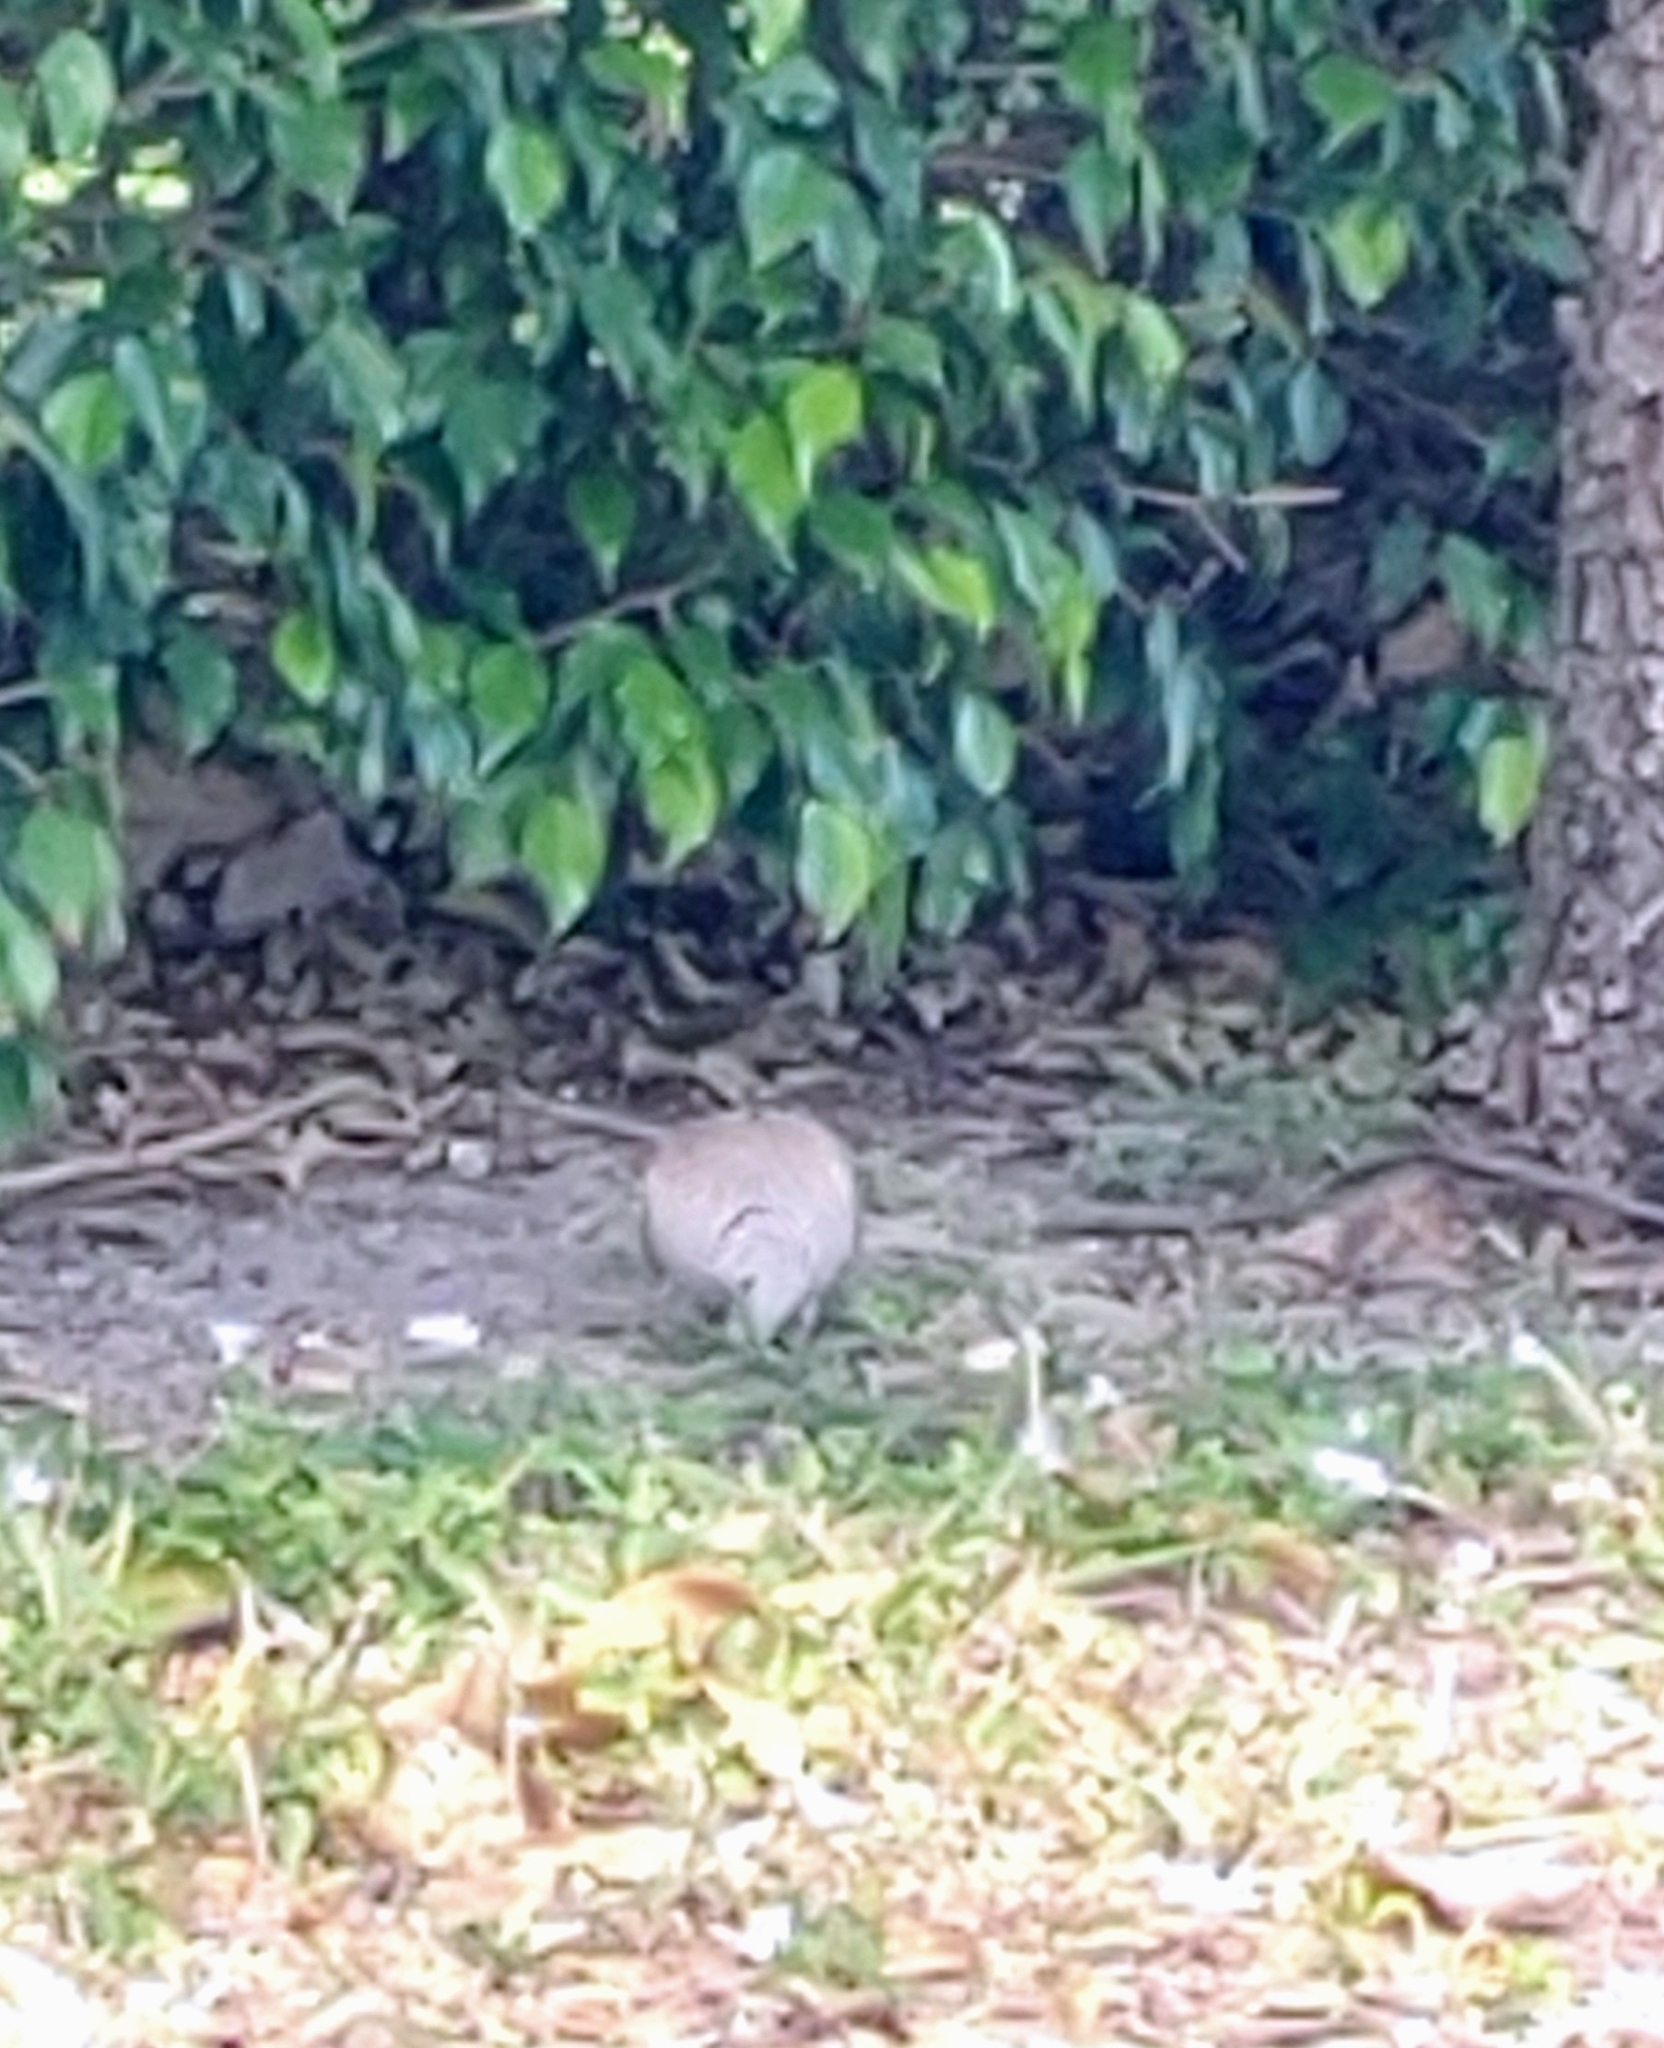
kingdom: Animalia
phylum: Chordata
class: Aves
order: Columbiformes
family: Columbidae
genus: Streptopelia
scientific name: Streptopelia decaocto
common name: Eurasian collared dove
